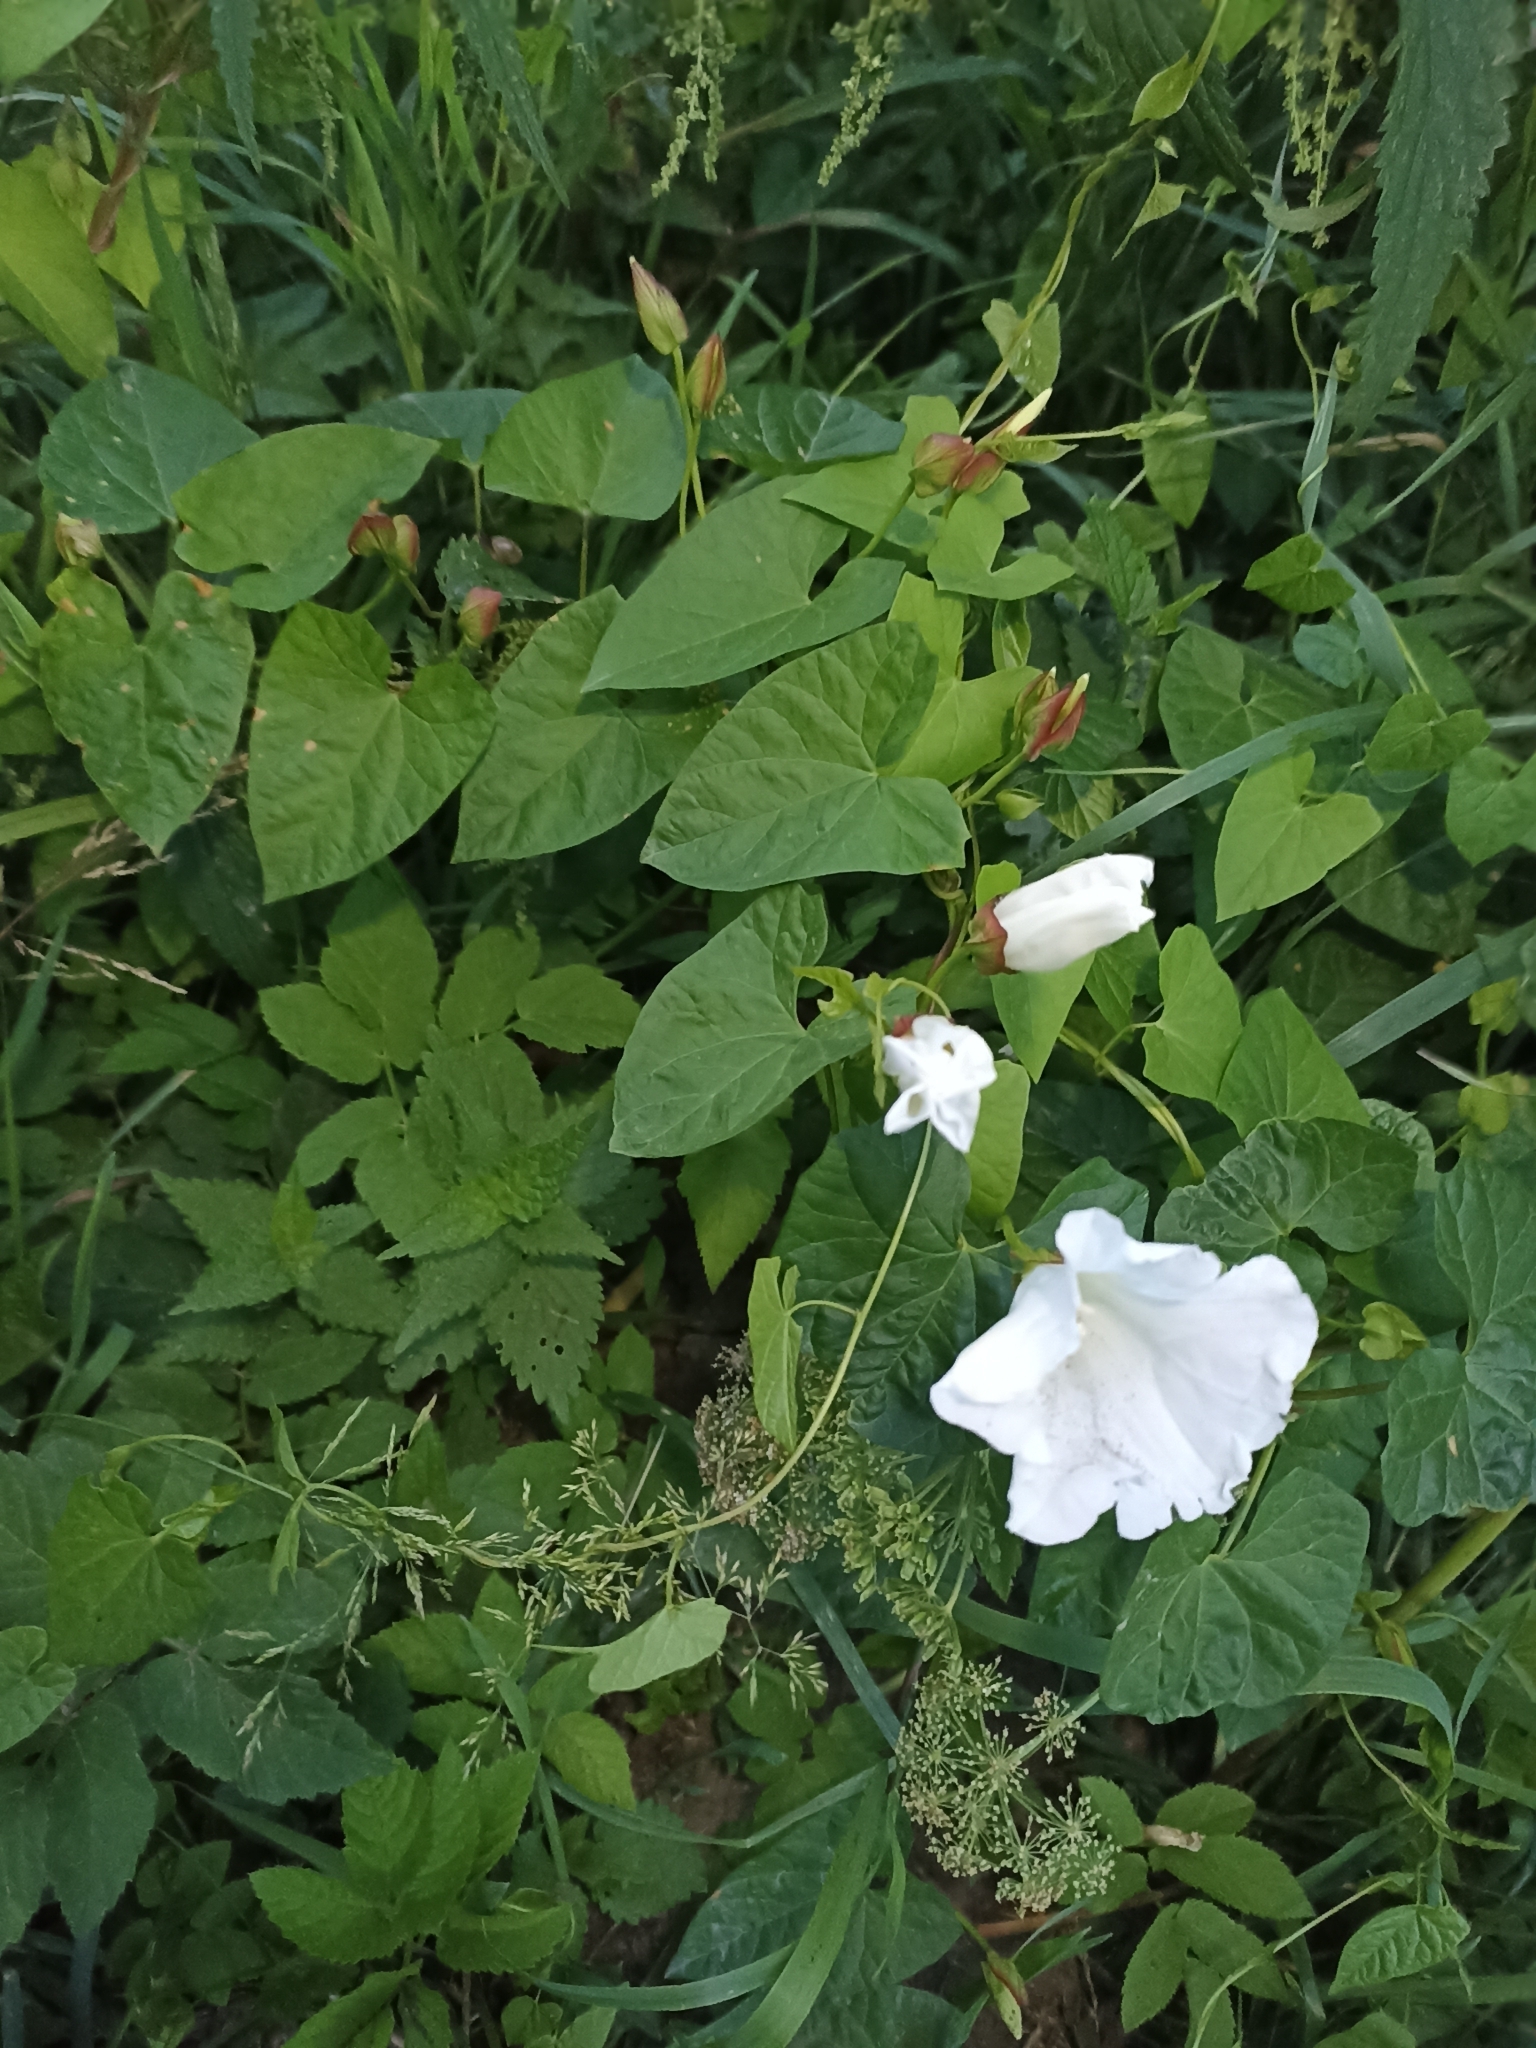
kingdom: Plantae
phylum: Tracheophyta
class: Magnoliopsida
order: Solanales
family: Convolvulaceae
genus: Calystegia
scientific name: Calystegia sepium
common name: Hedge bindweed
